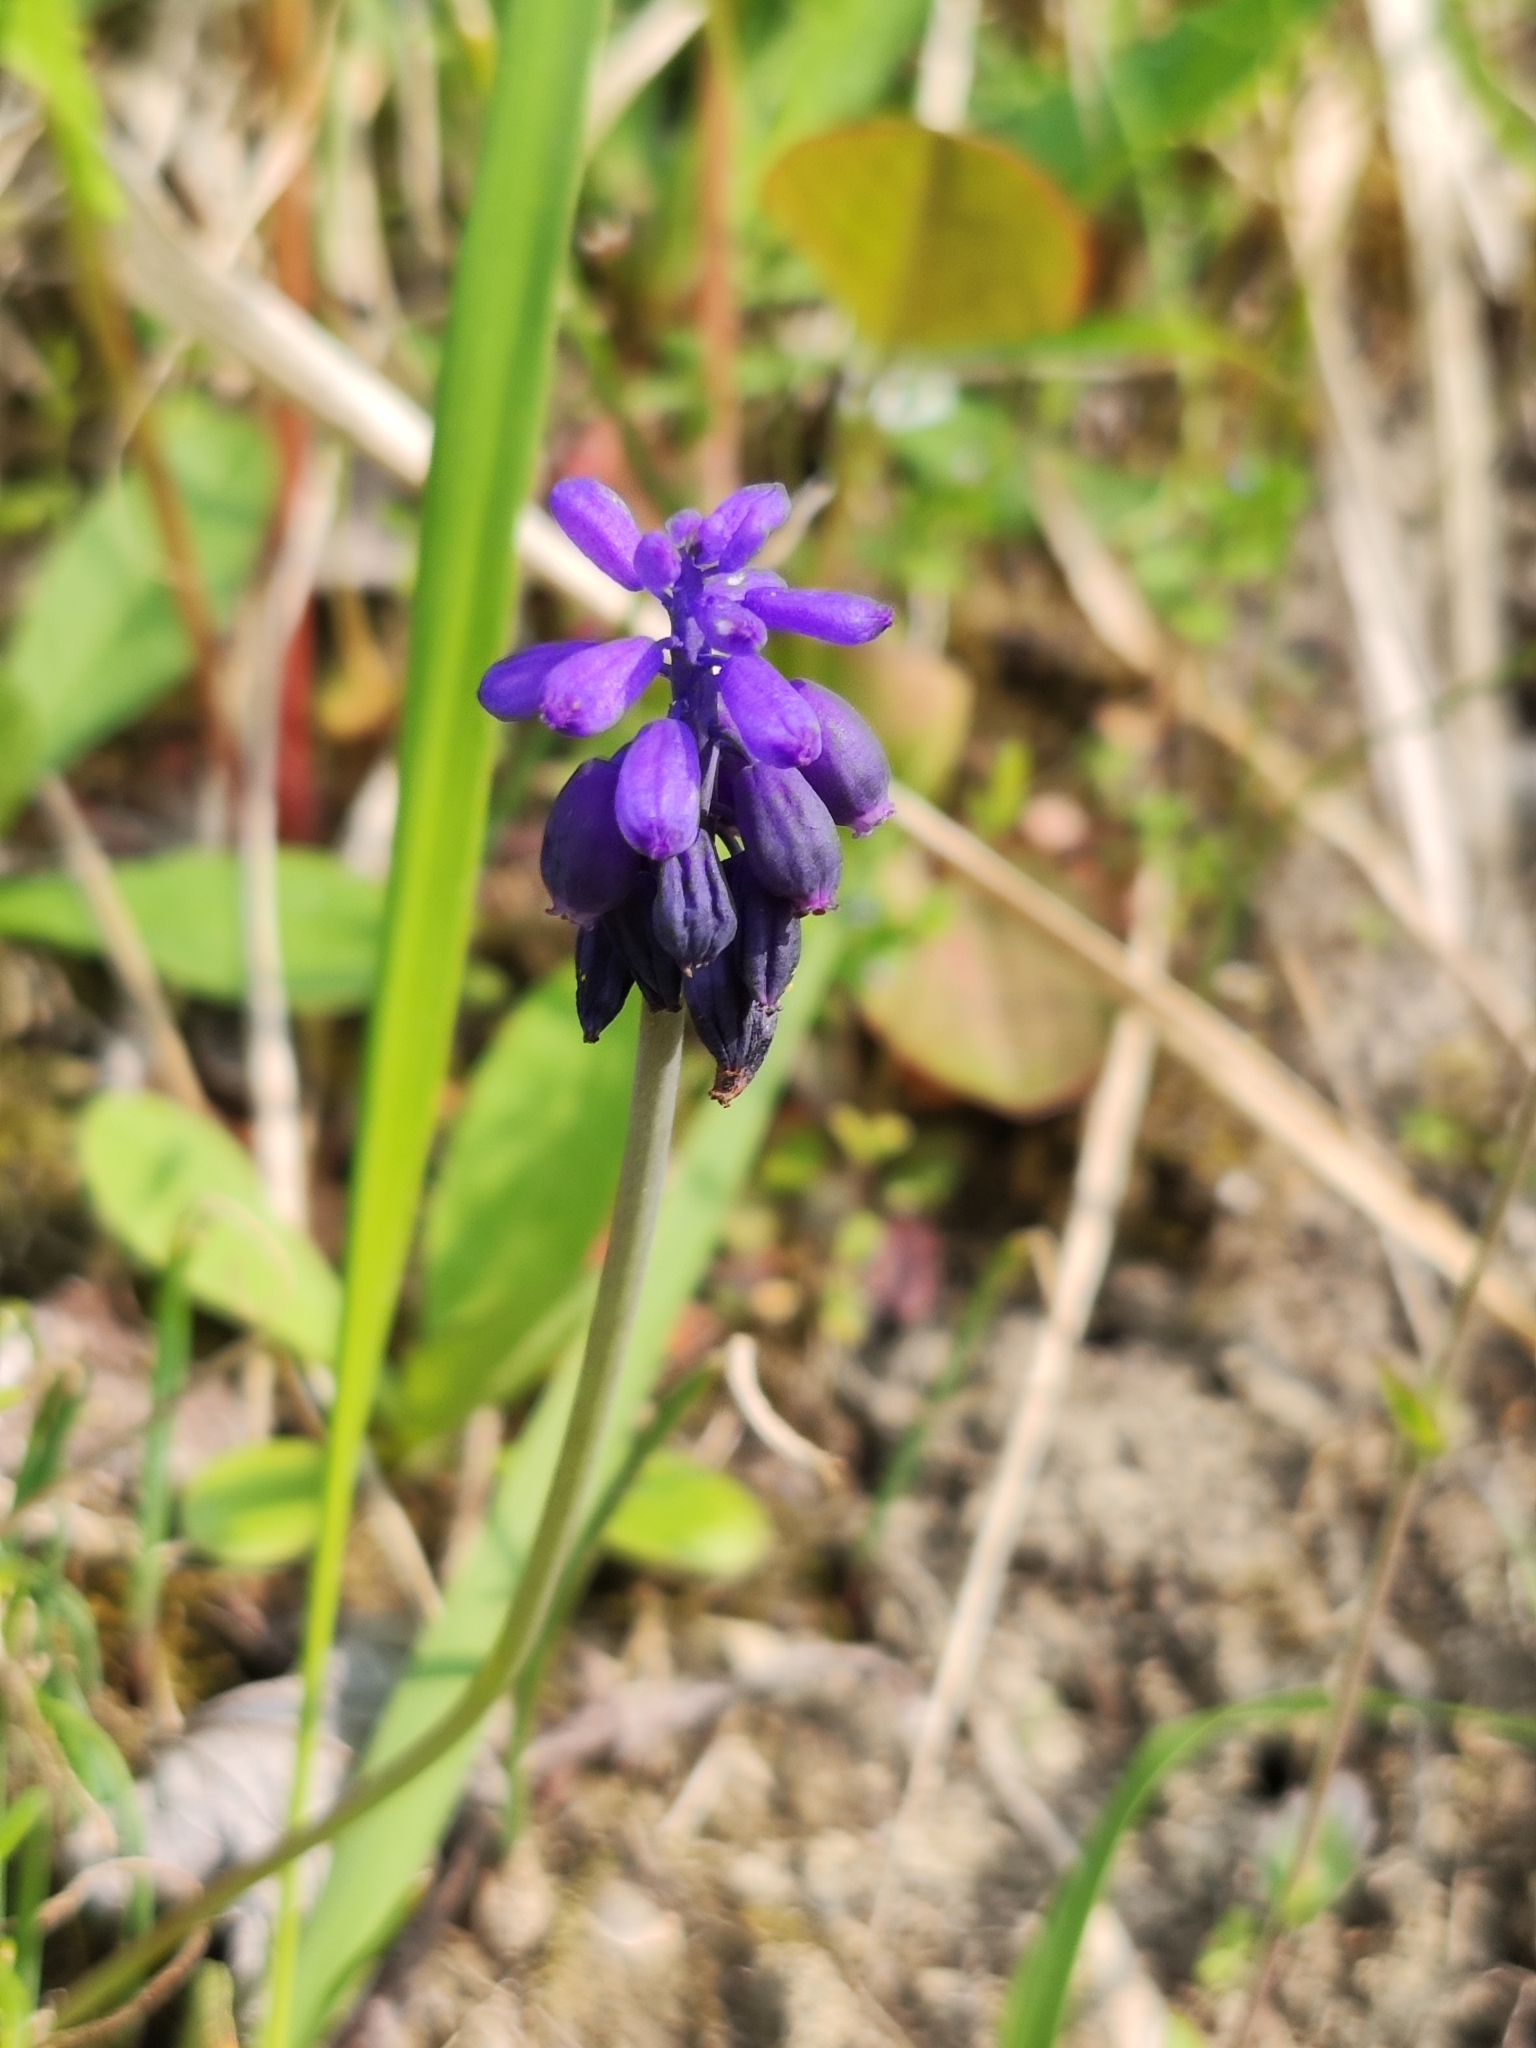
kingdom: Plantae
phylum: Tracheophyta
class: Liliopsida
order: Asparagales
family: Asparagaceae
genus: Muscari
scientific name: Muscari neglectum
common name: Grape-hyacinth
